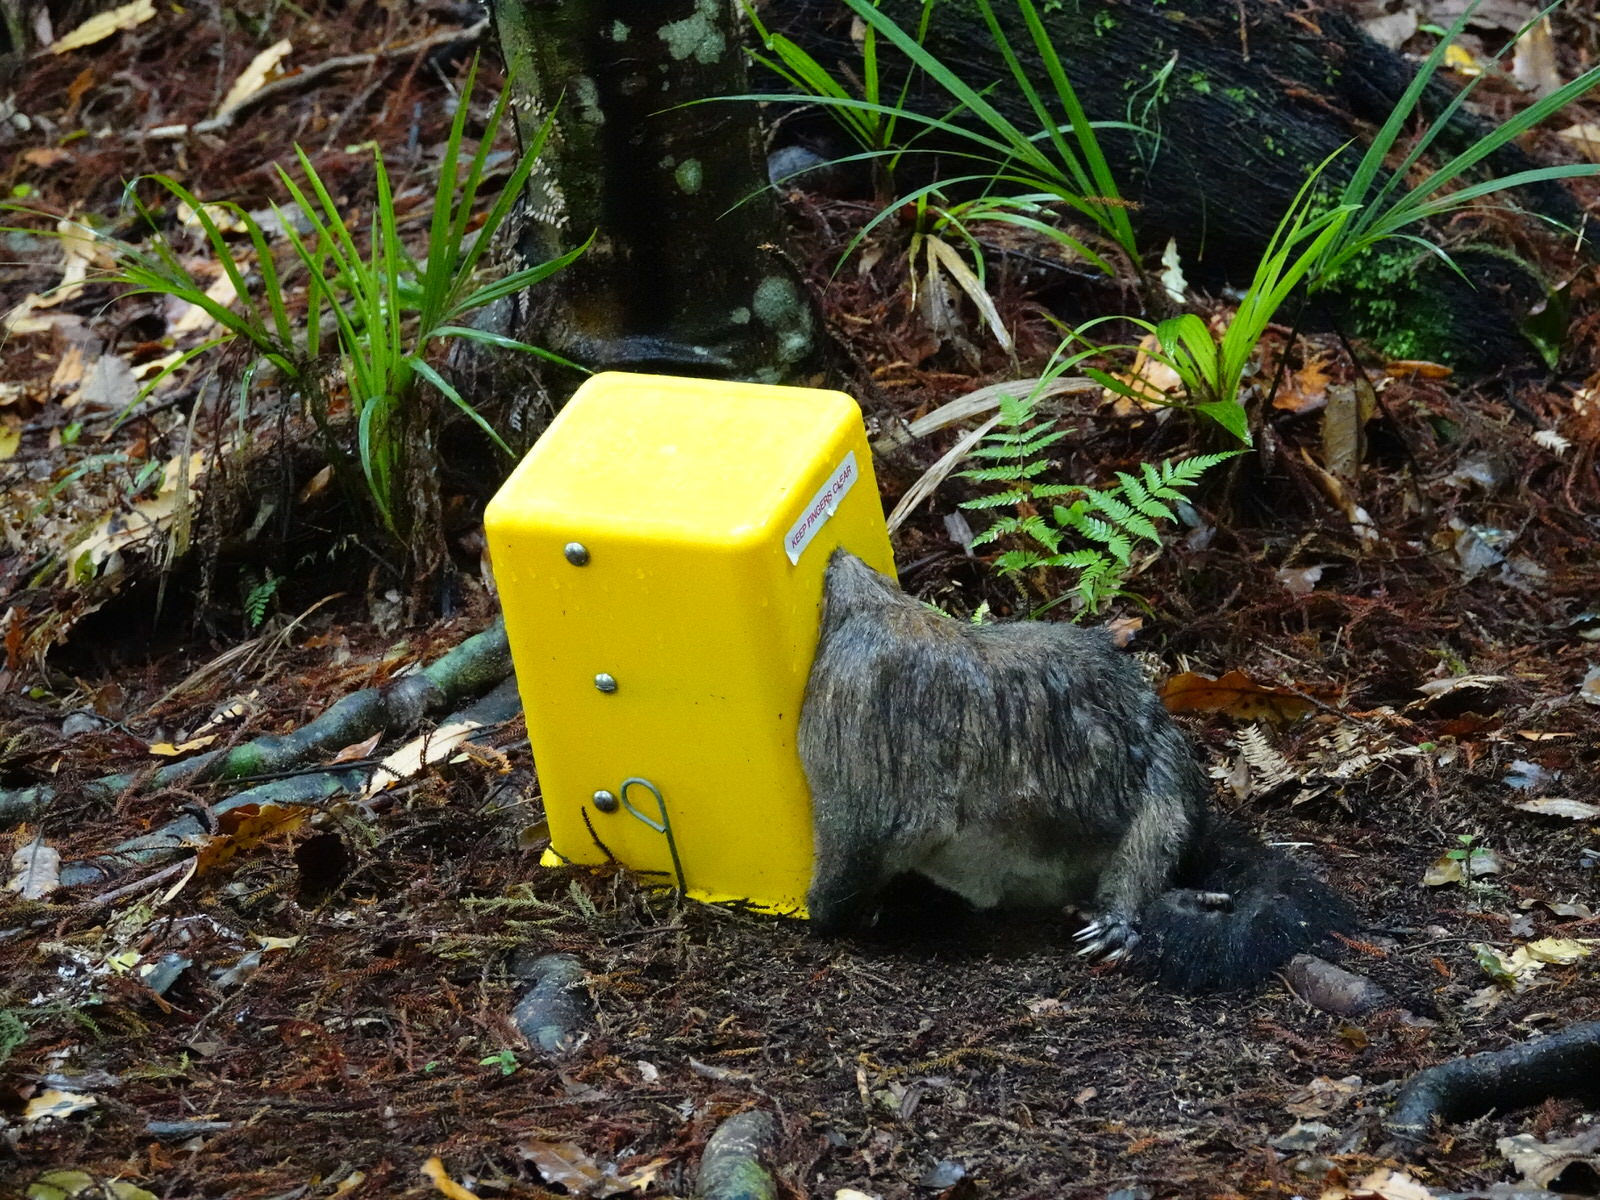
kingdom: Animalia
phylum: Chordata
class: Mammalia
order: Diprotodontia
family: Phalangeridae
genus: Trichosurus
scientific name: Trichosurus vulpecula
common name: Common brushtail
